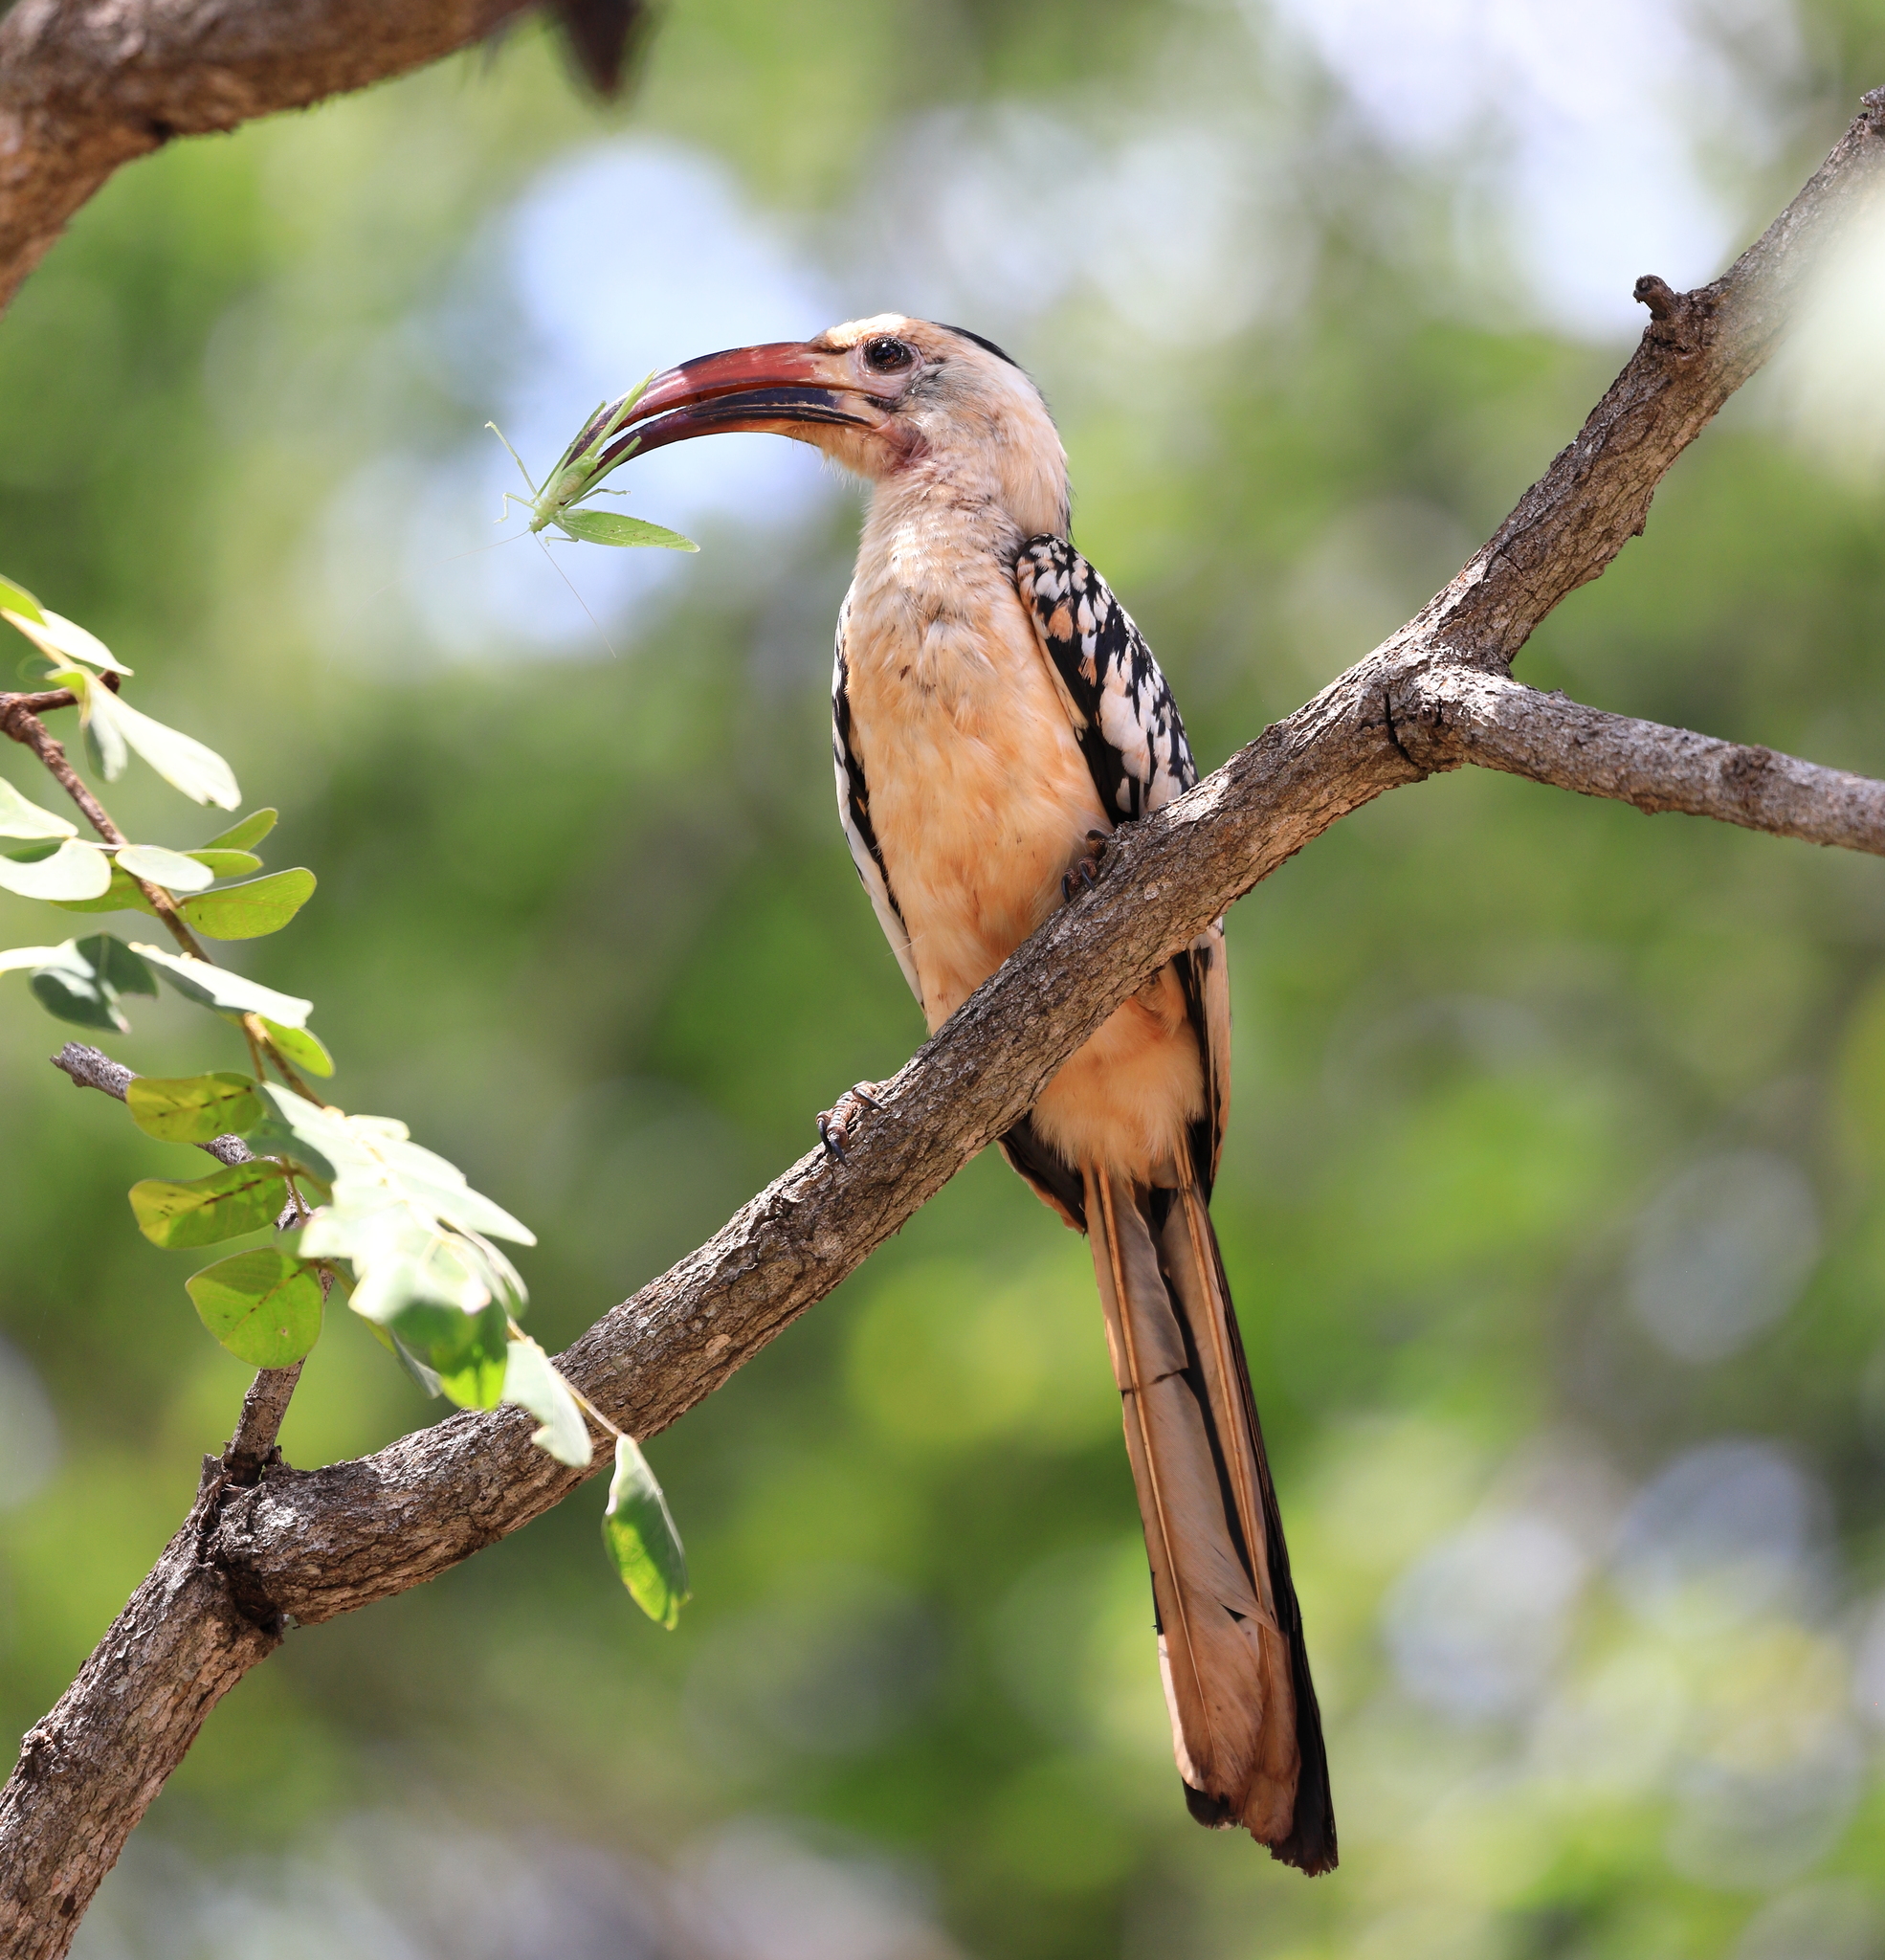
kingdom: Animalia
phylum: Chordata
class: Aves
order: Bucerotiformes
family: Bucerotidae
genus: Tockus
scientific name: Tockus erythrorhynchus
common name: Northern red-billed hornbill
